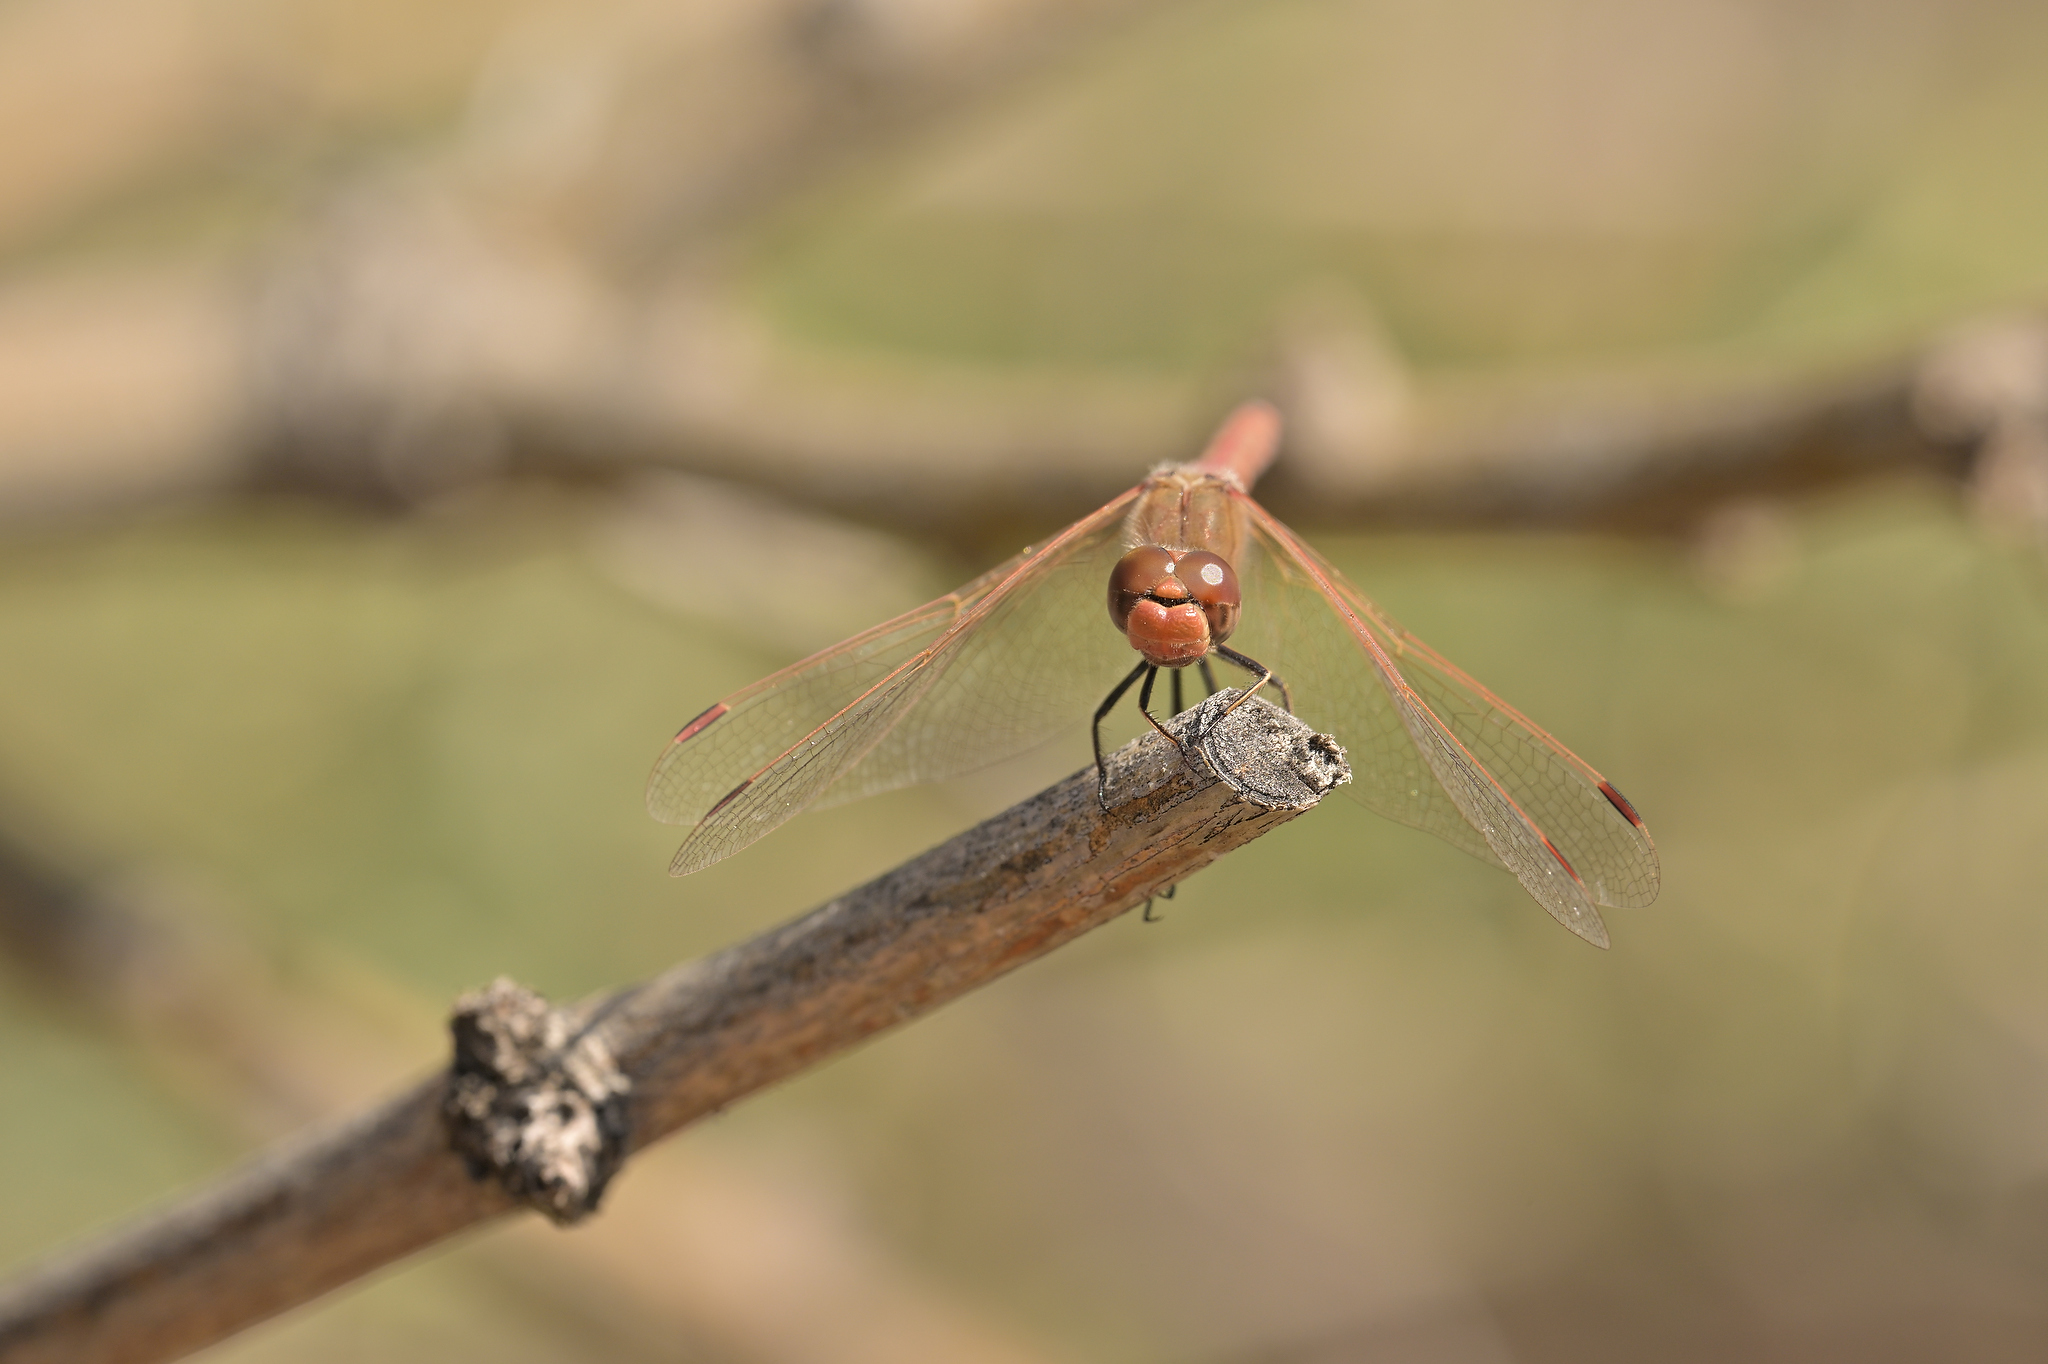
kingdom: Animalia
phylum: Arthropoda
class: Insecta
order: Odonata
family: Libellulidae
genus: Sympetrum
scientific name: Sympetrum corruptum
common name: Variegated meadowhawk
